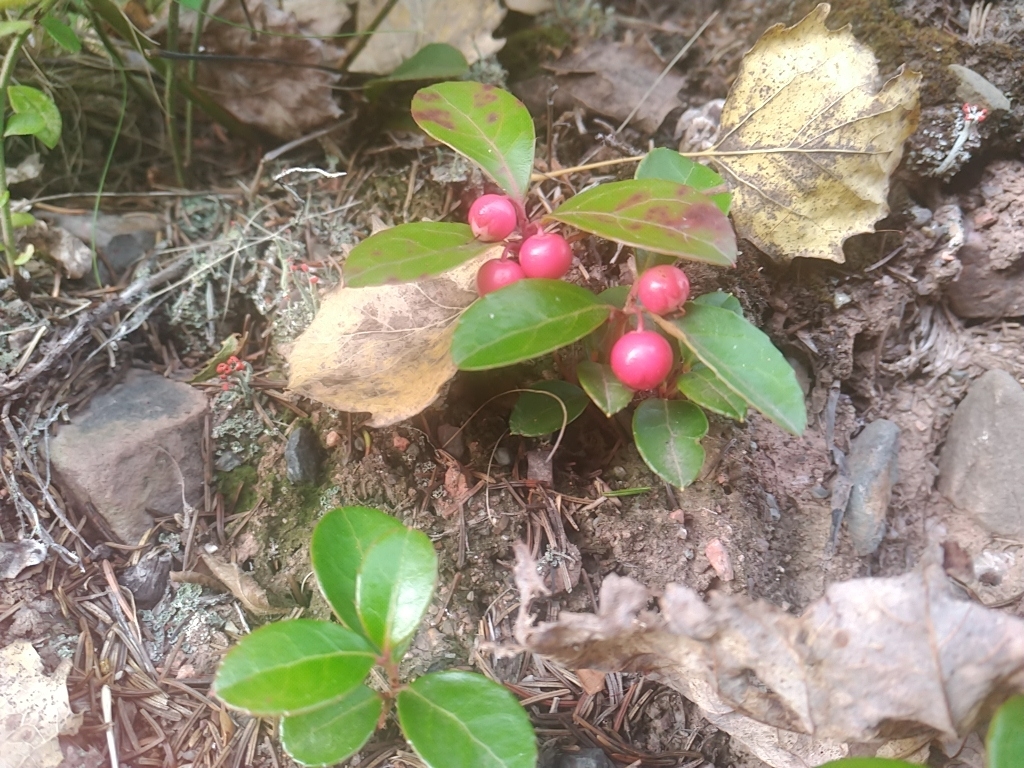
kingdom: Plantae
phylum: Tracheophyta
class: Magnoliopsida
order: Ericales
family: Ericaceae
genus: Gaultheria
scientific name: Gaultheria procumbens
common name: Checkerberry
